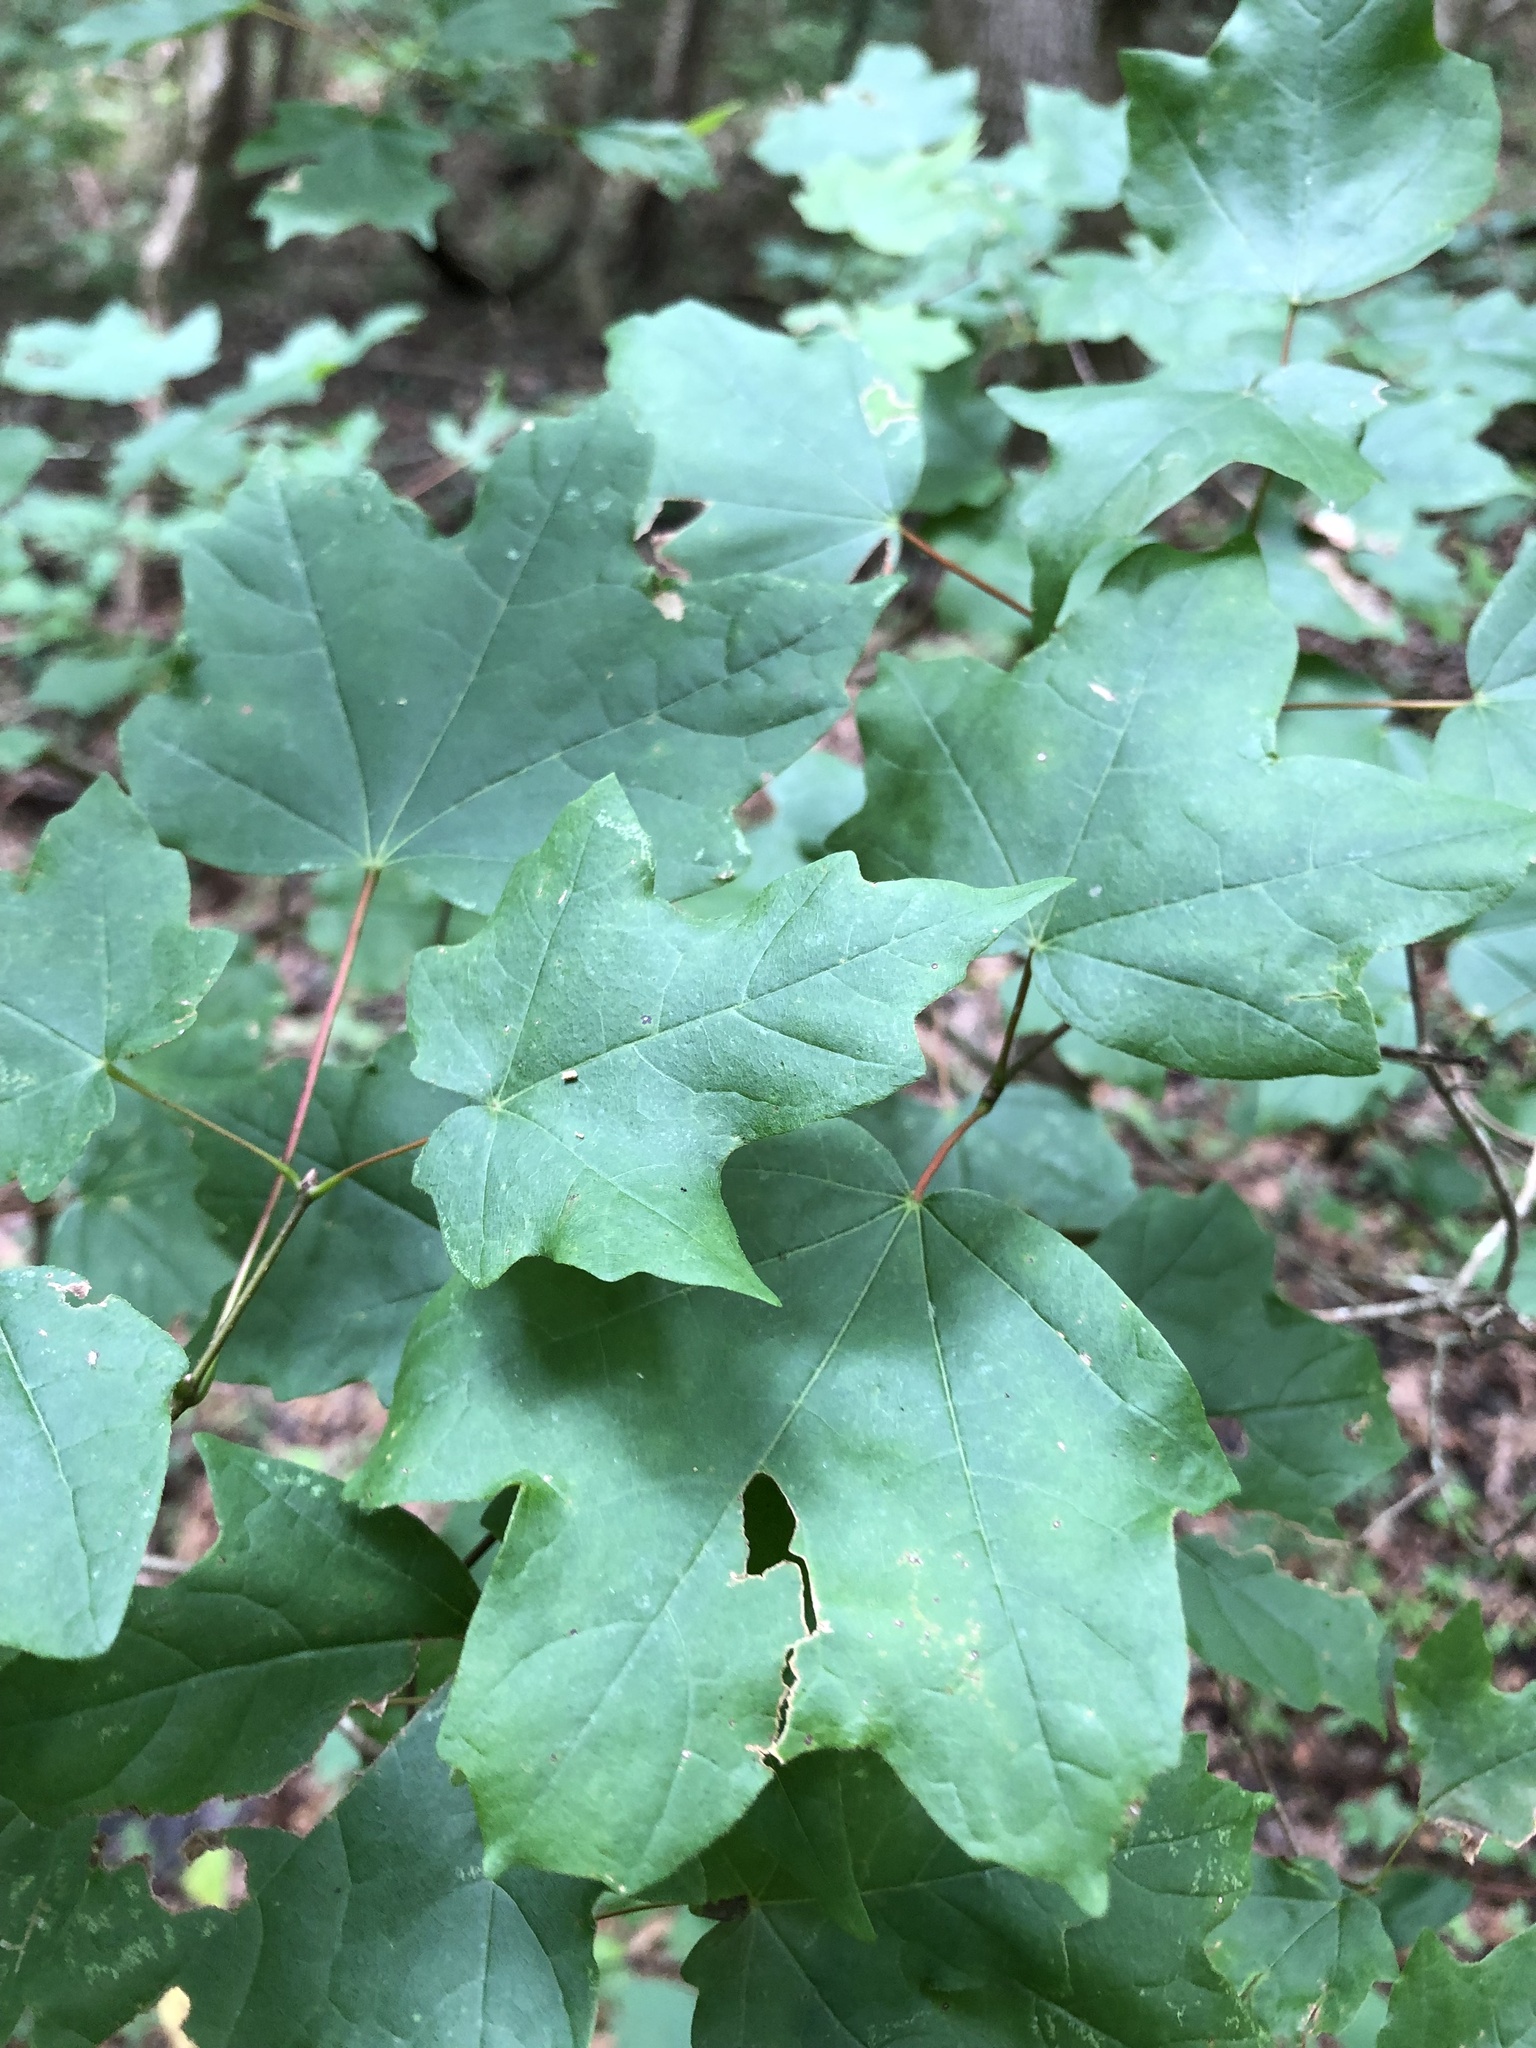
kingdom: Plantae
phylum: Tracheophyta
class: Magnoliopsida
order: Sapindales
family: Sapindaceae
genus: Acer
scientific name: Acer leucoderme
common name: Chalk maple
